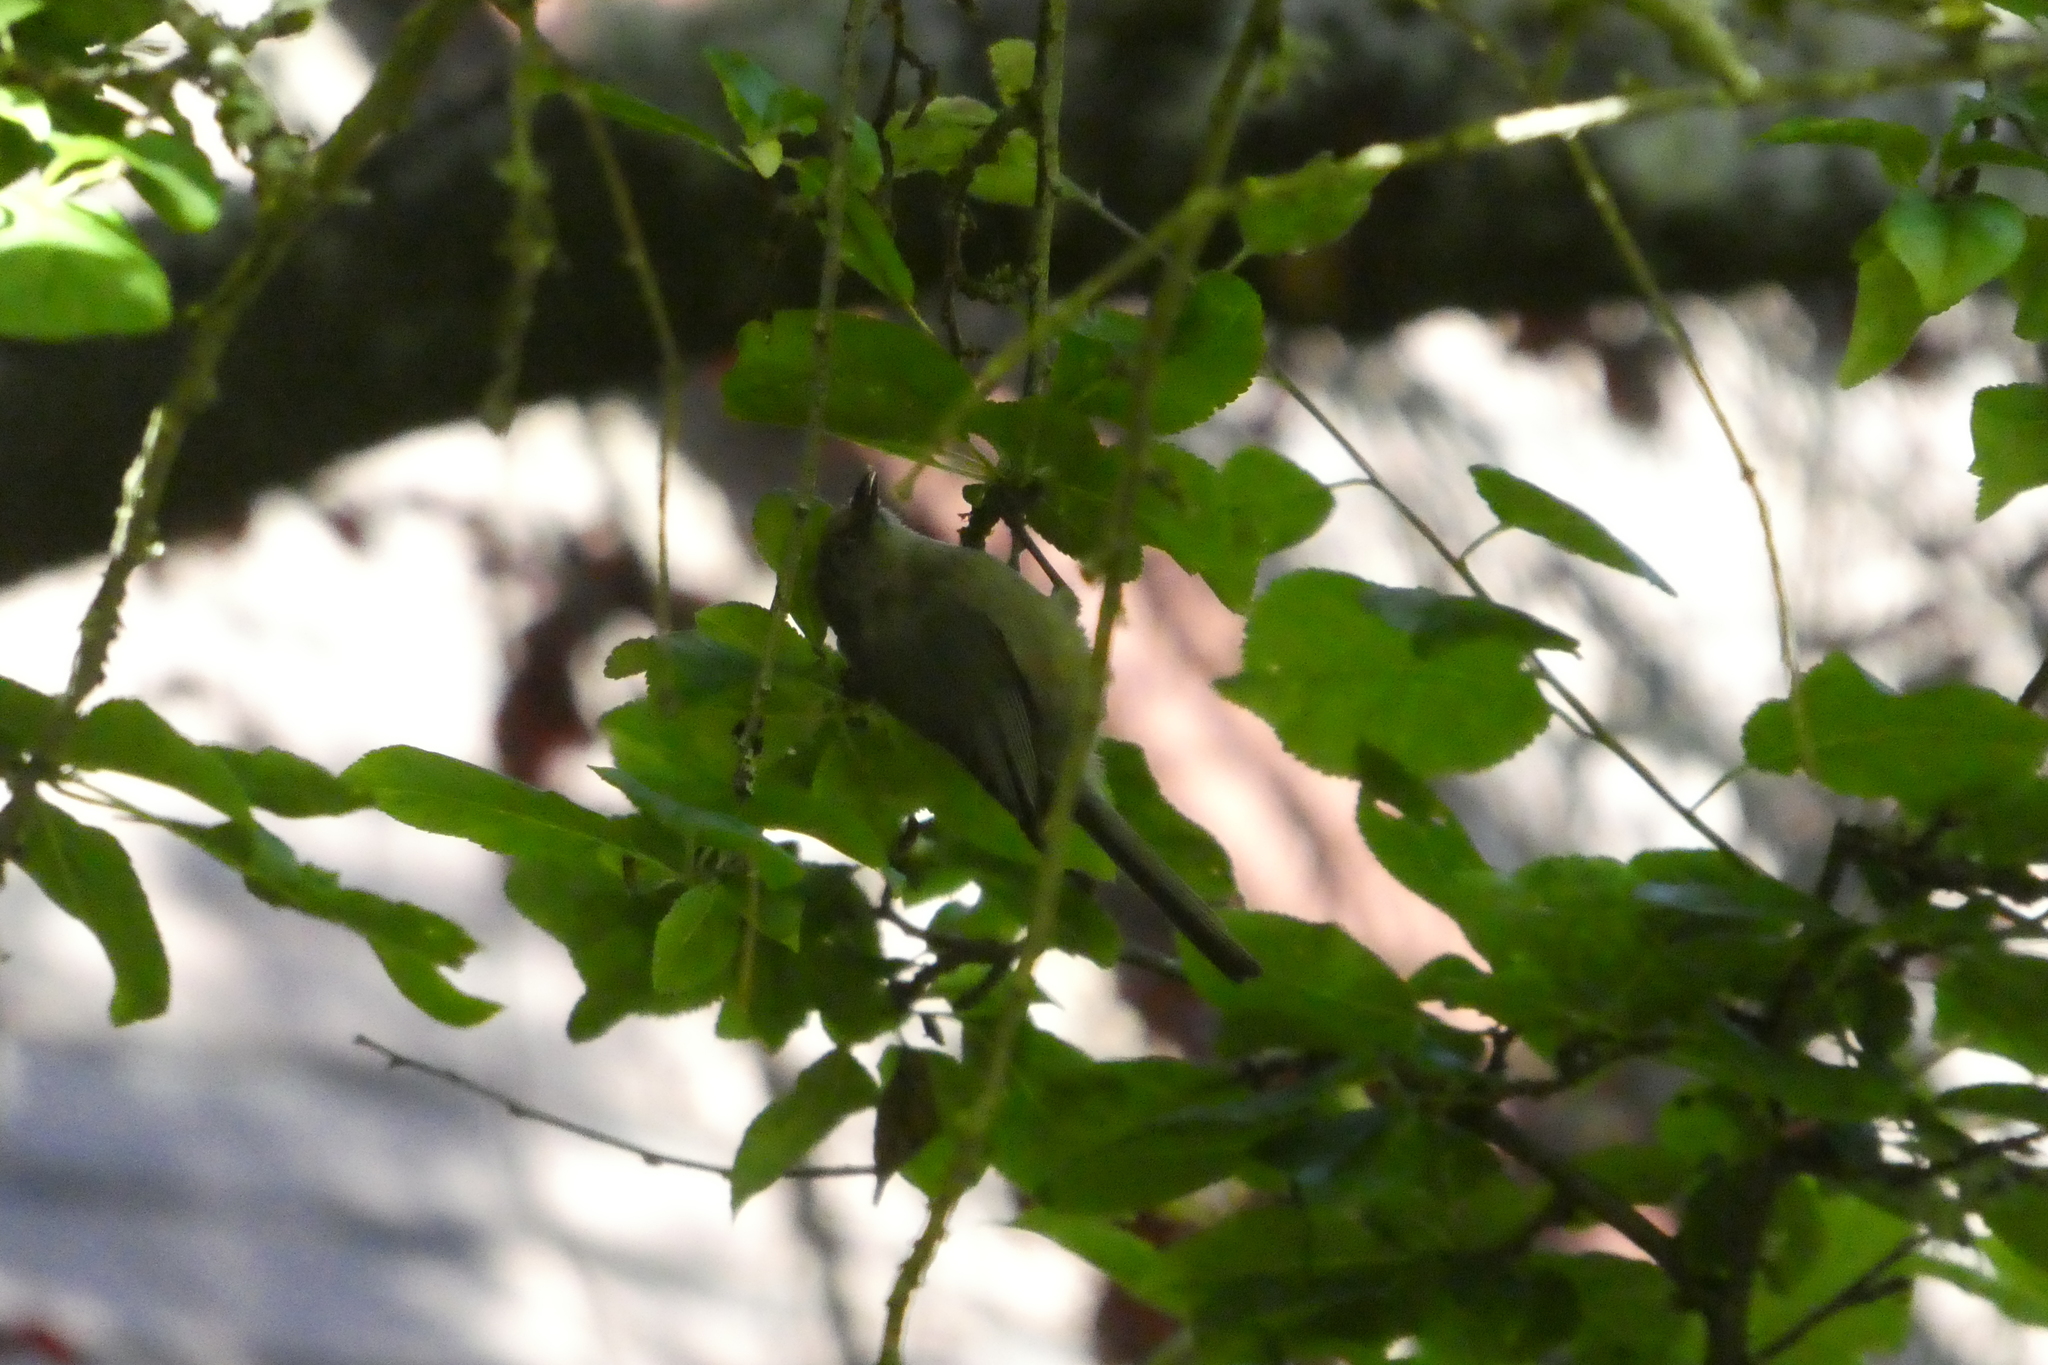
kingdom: Animalia
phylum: Chordata
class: Aves
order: Passeriformes
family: Aegithalidae
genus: Psaltriparus
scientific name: Psaltriparus minimus
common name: American bushtit
